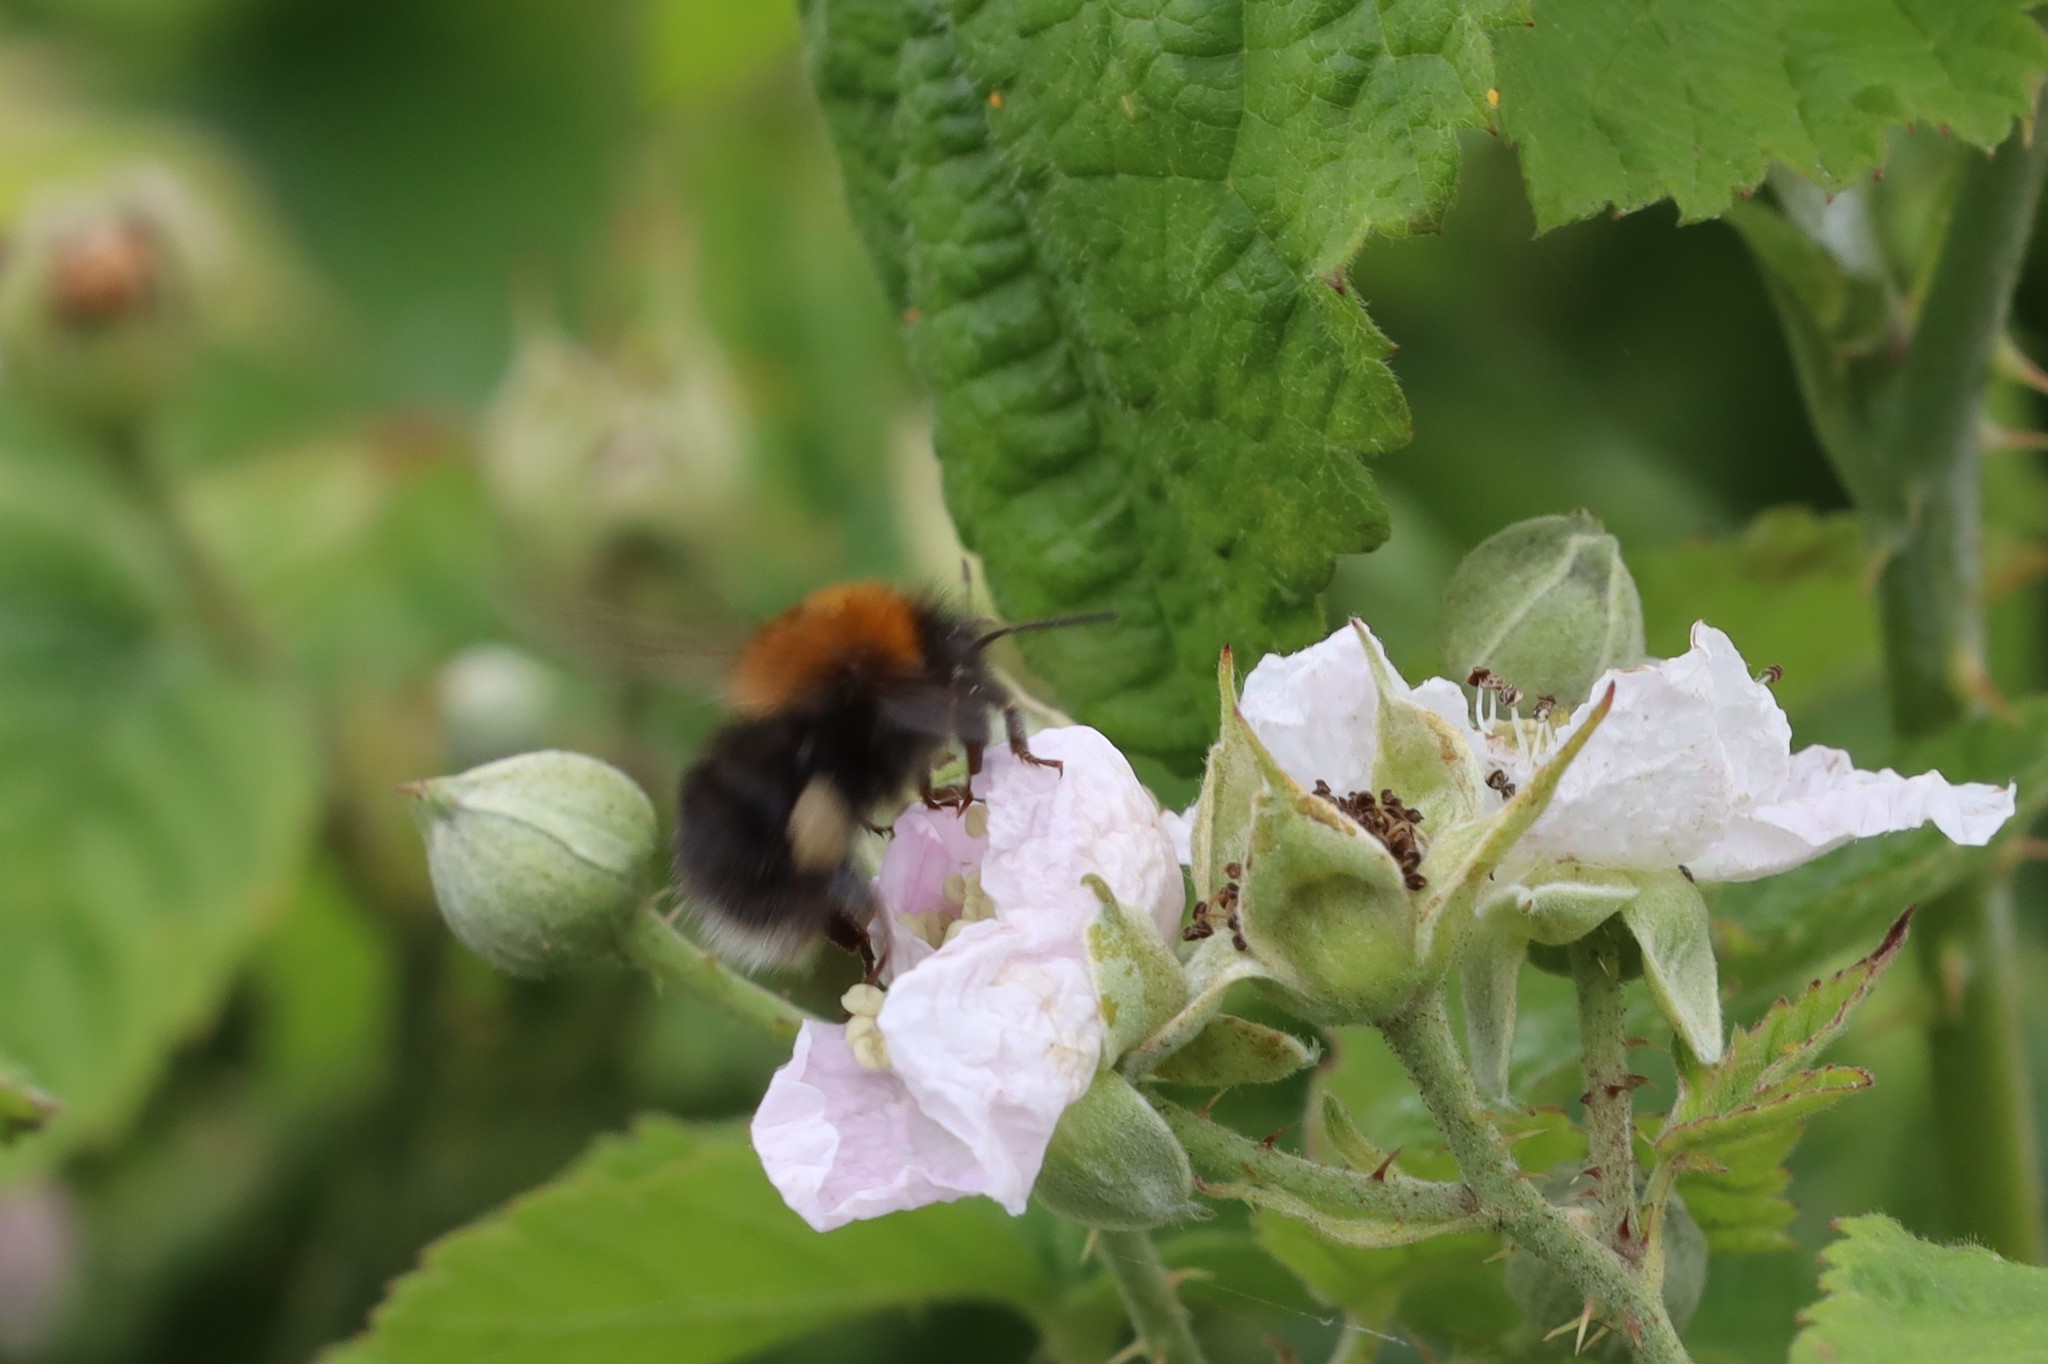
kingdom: Animalia
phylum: Arthropoda
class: Insecta
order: Hymenoptera
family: Apidae
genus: Bombus
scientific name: Bombus hypnorum
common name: New garden bumblebee
